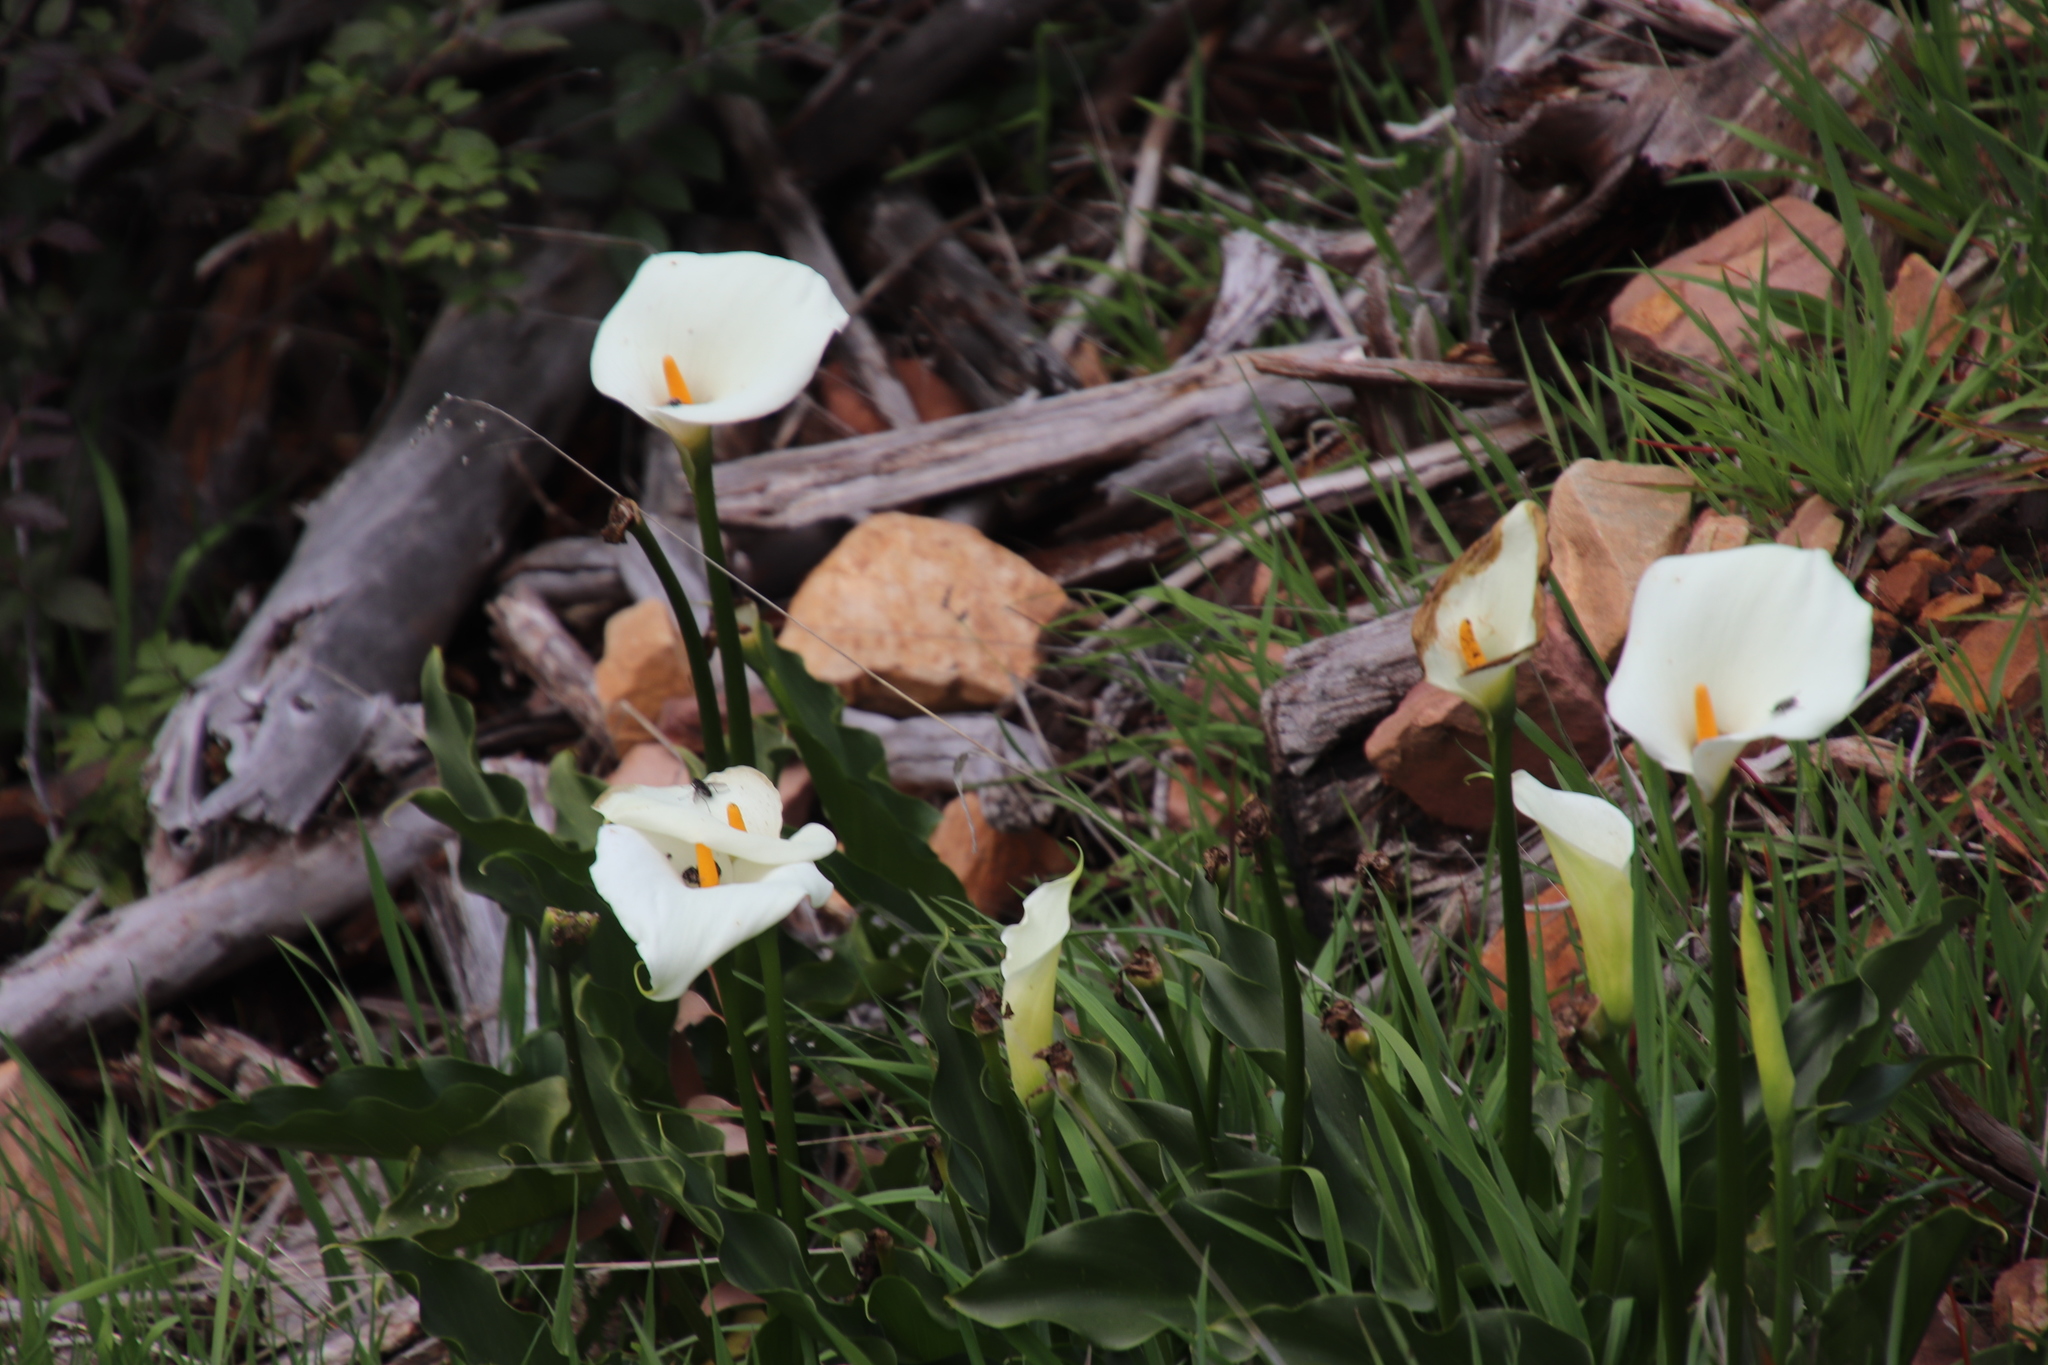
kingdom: Plantae
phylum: Tracheophyta
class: Liliopsida
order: Alismatales
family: Araceae
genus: Zantedeschia
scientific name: Zantedeschia aethiopica
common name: Altar-lily
